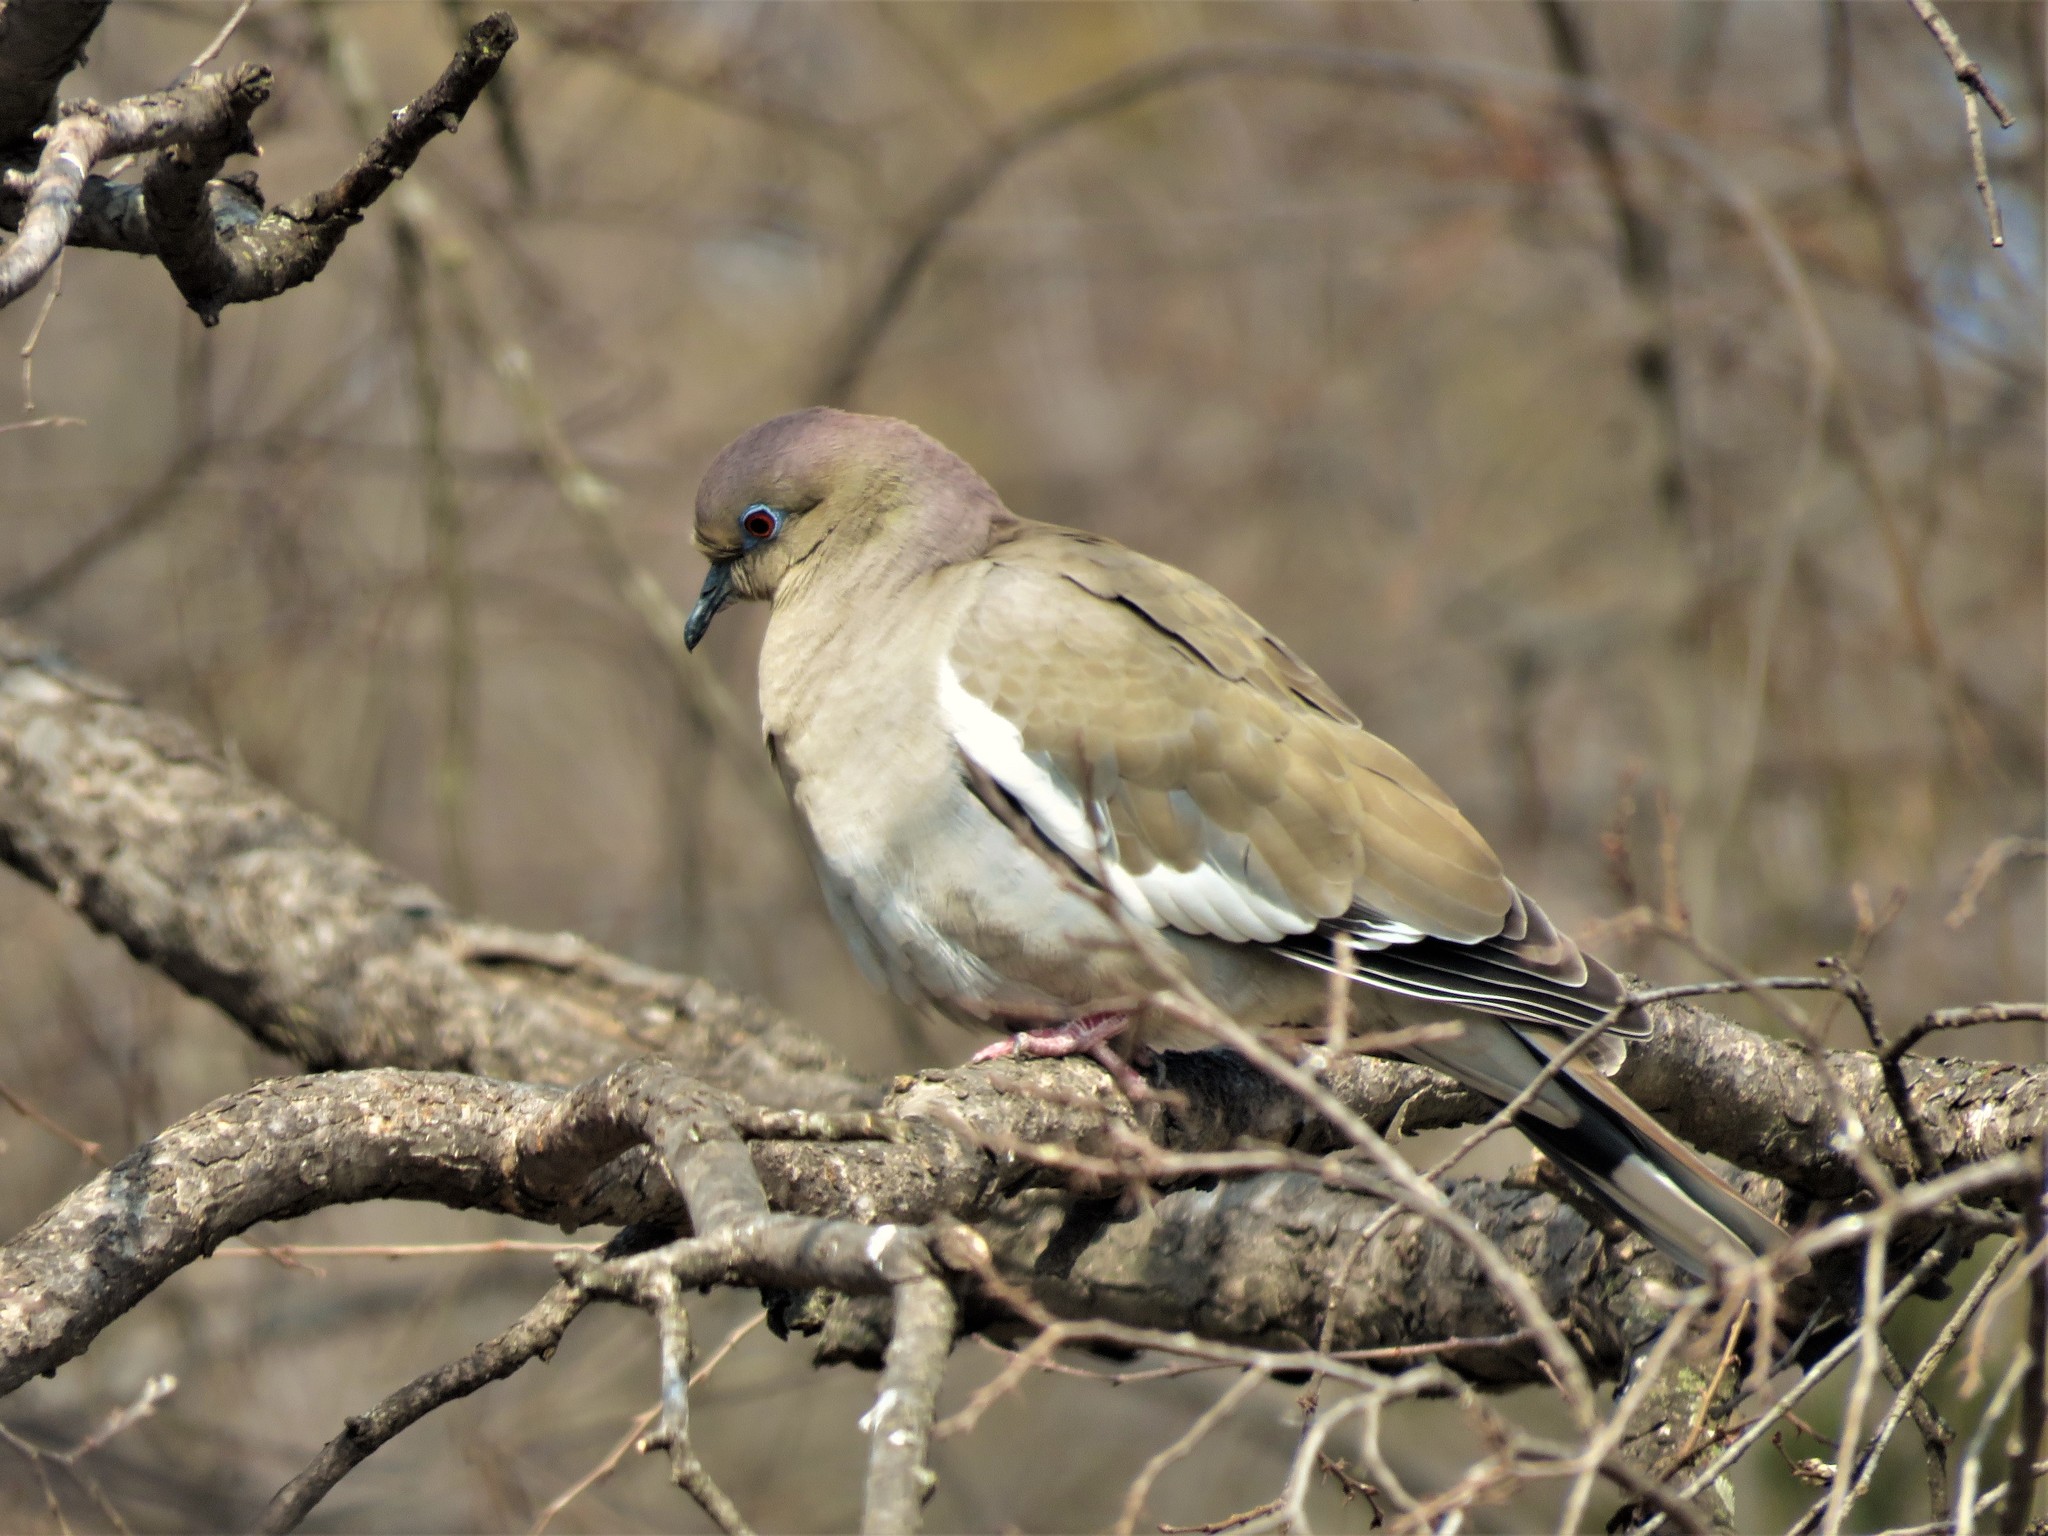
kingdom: Animalia
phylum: Chordata
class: Aves
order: Columbiformes
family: Columbidae
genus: Zenaida
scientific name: Zenaida asiatica
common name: White-winged dove
